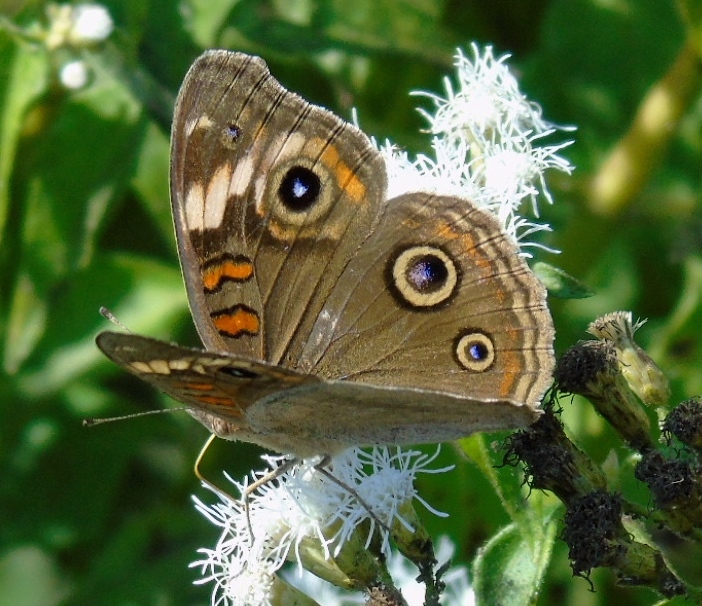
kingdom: Animalia
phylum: Arthropoda
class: Insecta
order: Lepidoptera
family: Nymphalidae
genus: Junonia
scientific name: Junonia pacoma
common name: Pacific mangrove buckeye
